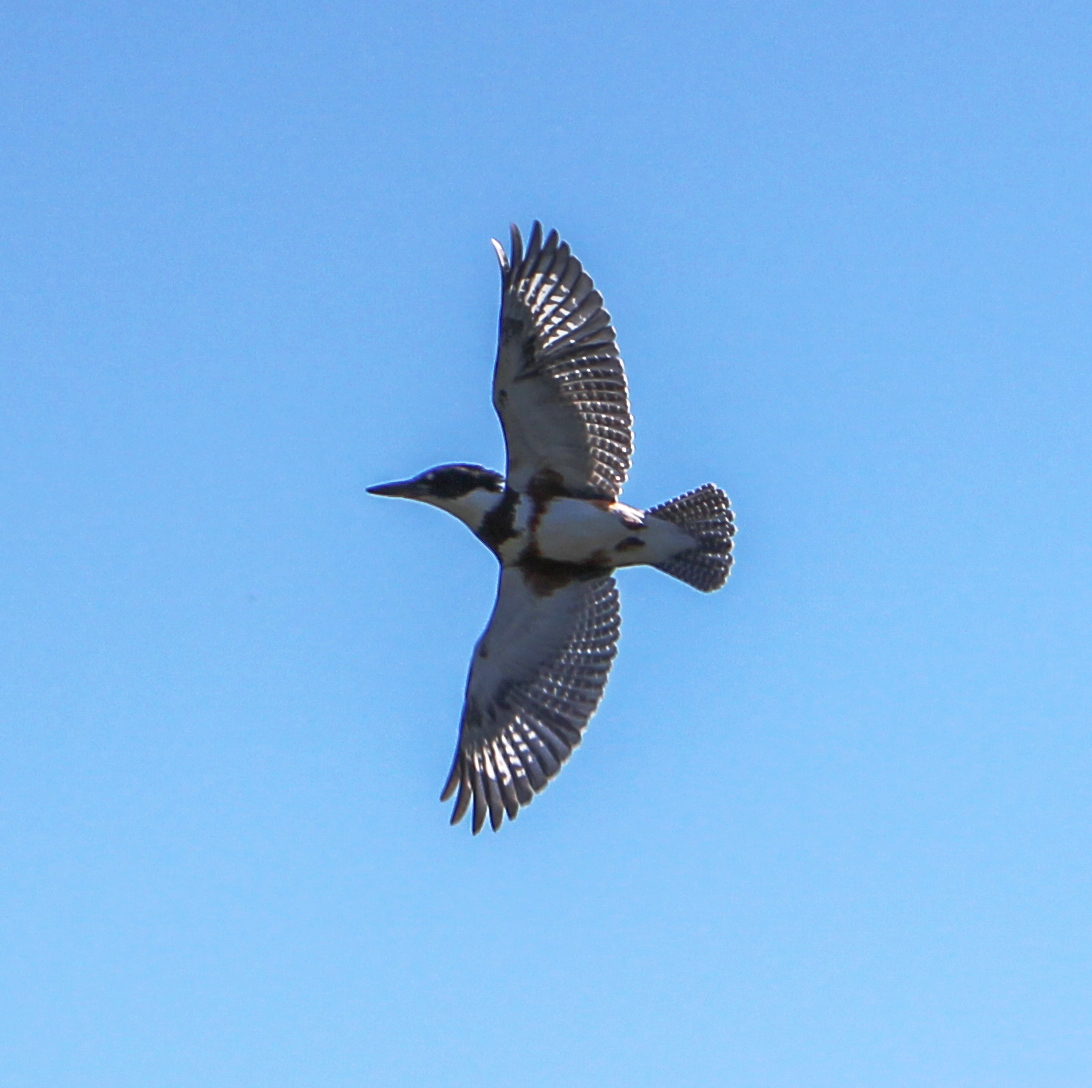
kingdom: Animalia
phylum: Chordata
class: Aves
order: Coraciiformes
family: Alcedinidae
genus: Megaceryle
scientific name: Megaceryle alcyon
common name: Belted kingfisher
